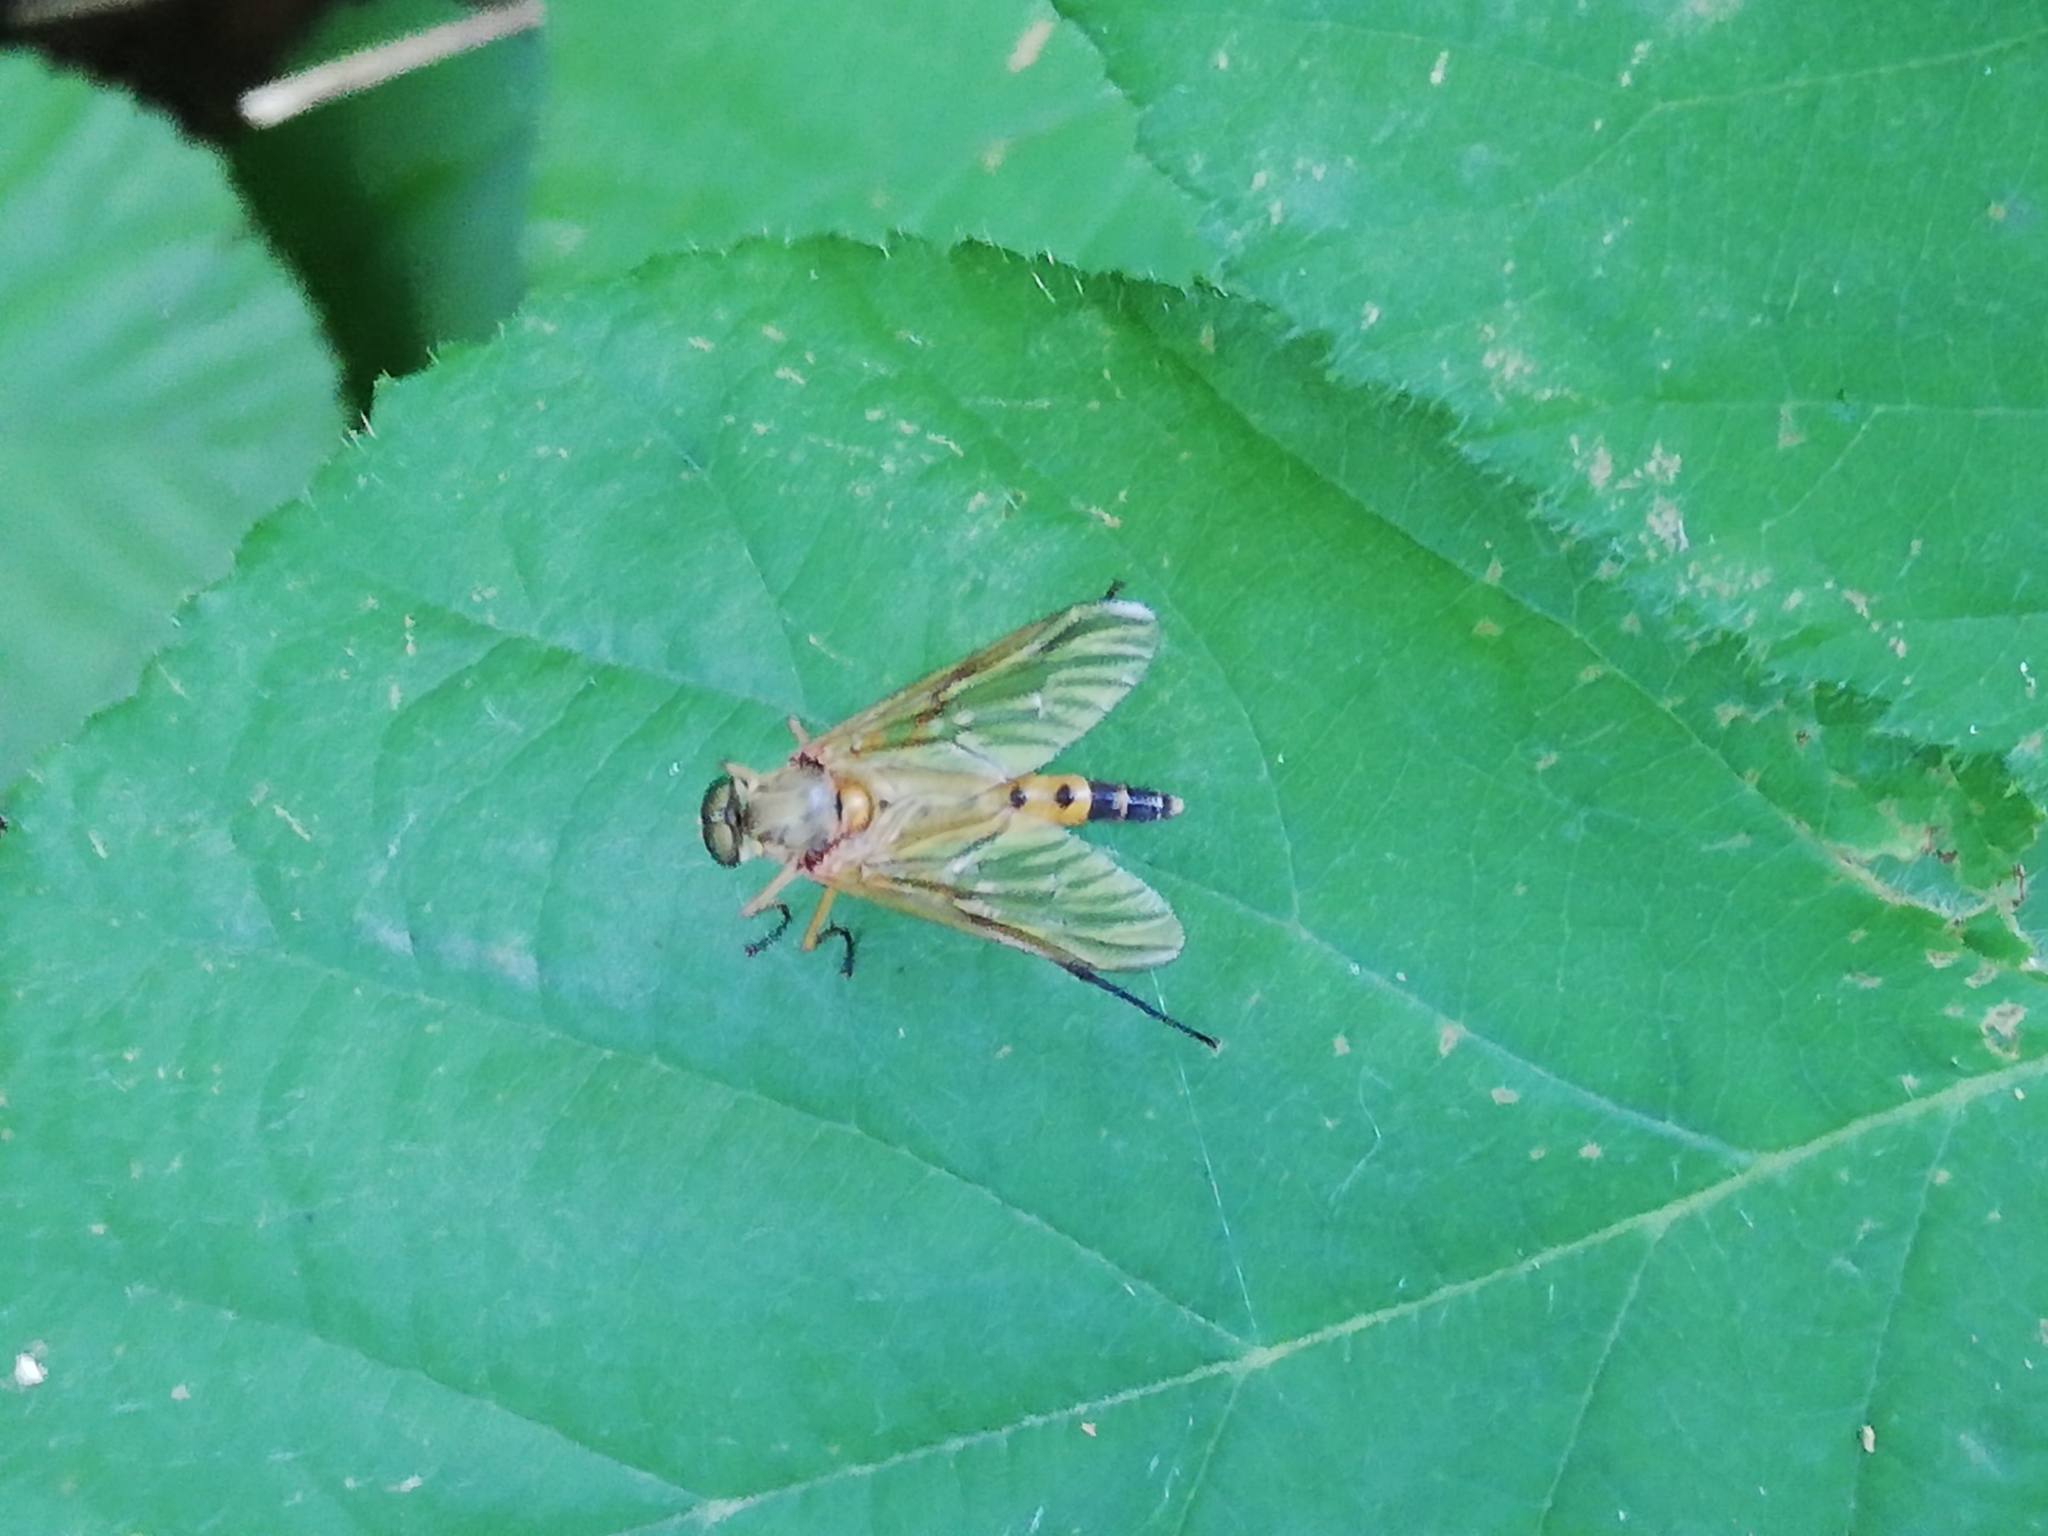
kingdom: Animalia
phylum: Arthropoda
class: Insecta
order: Diptera
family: Rhagionidae
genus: Rhagio
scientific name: Rhagio tringaria
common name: Marsh snipefly
